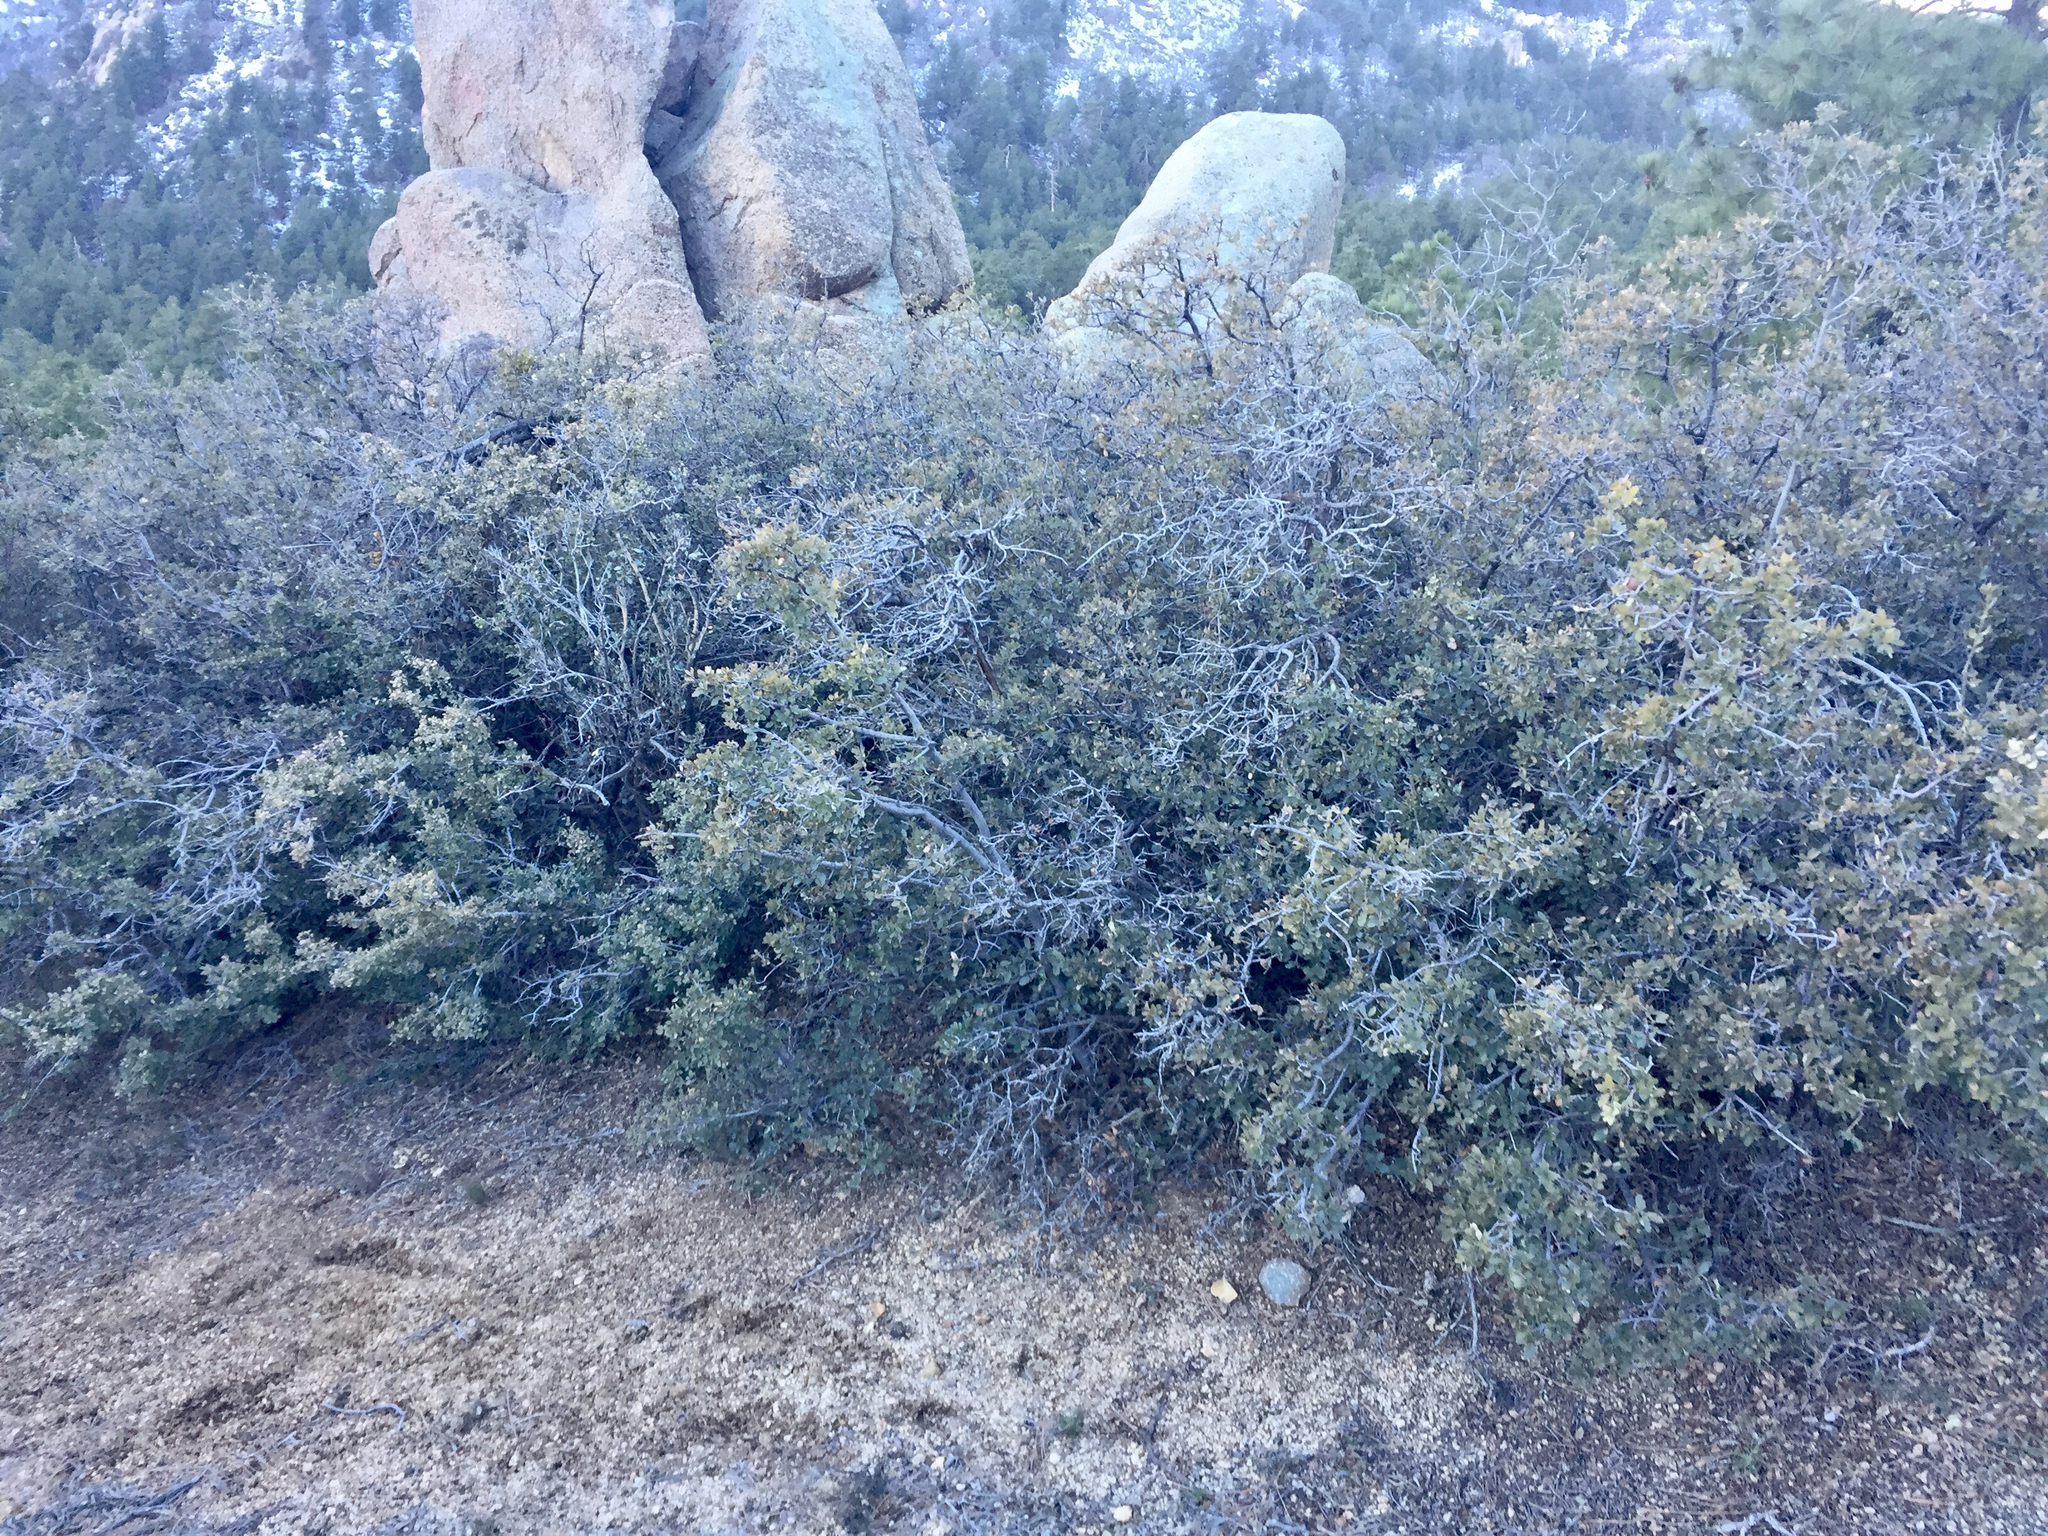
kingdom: Plantae
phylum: Tracheophyta
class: Magnoliopsida
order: Fagales
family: Fagaceae
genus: Quercus
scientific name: Quercus turbinella
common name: Sonoran scrub oak
